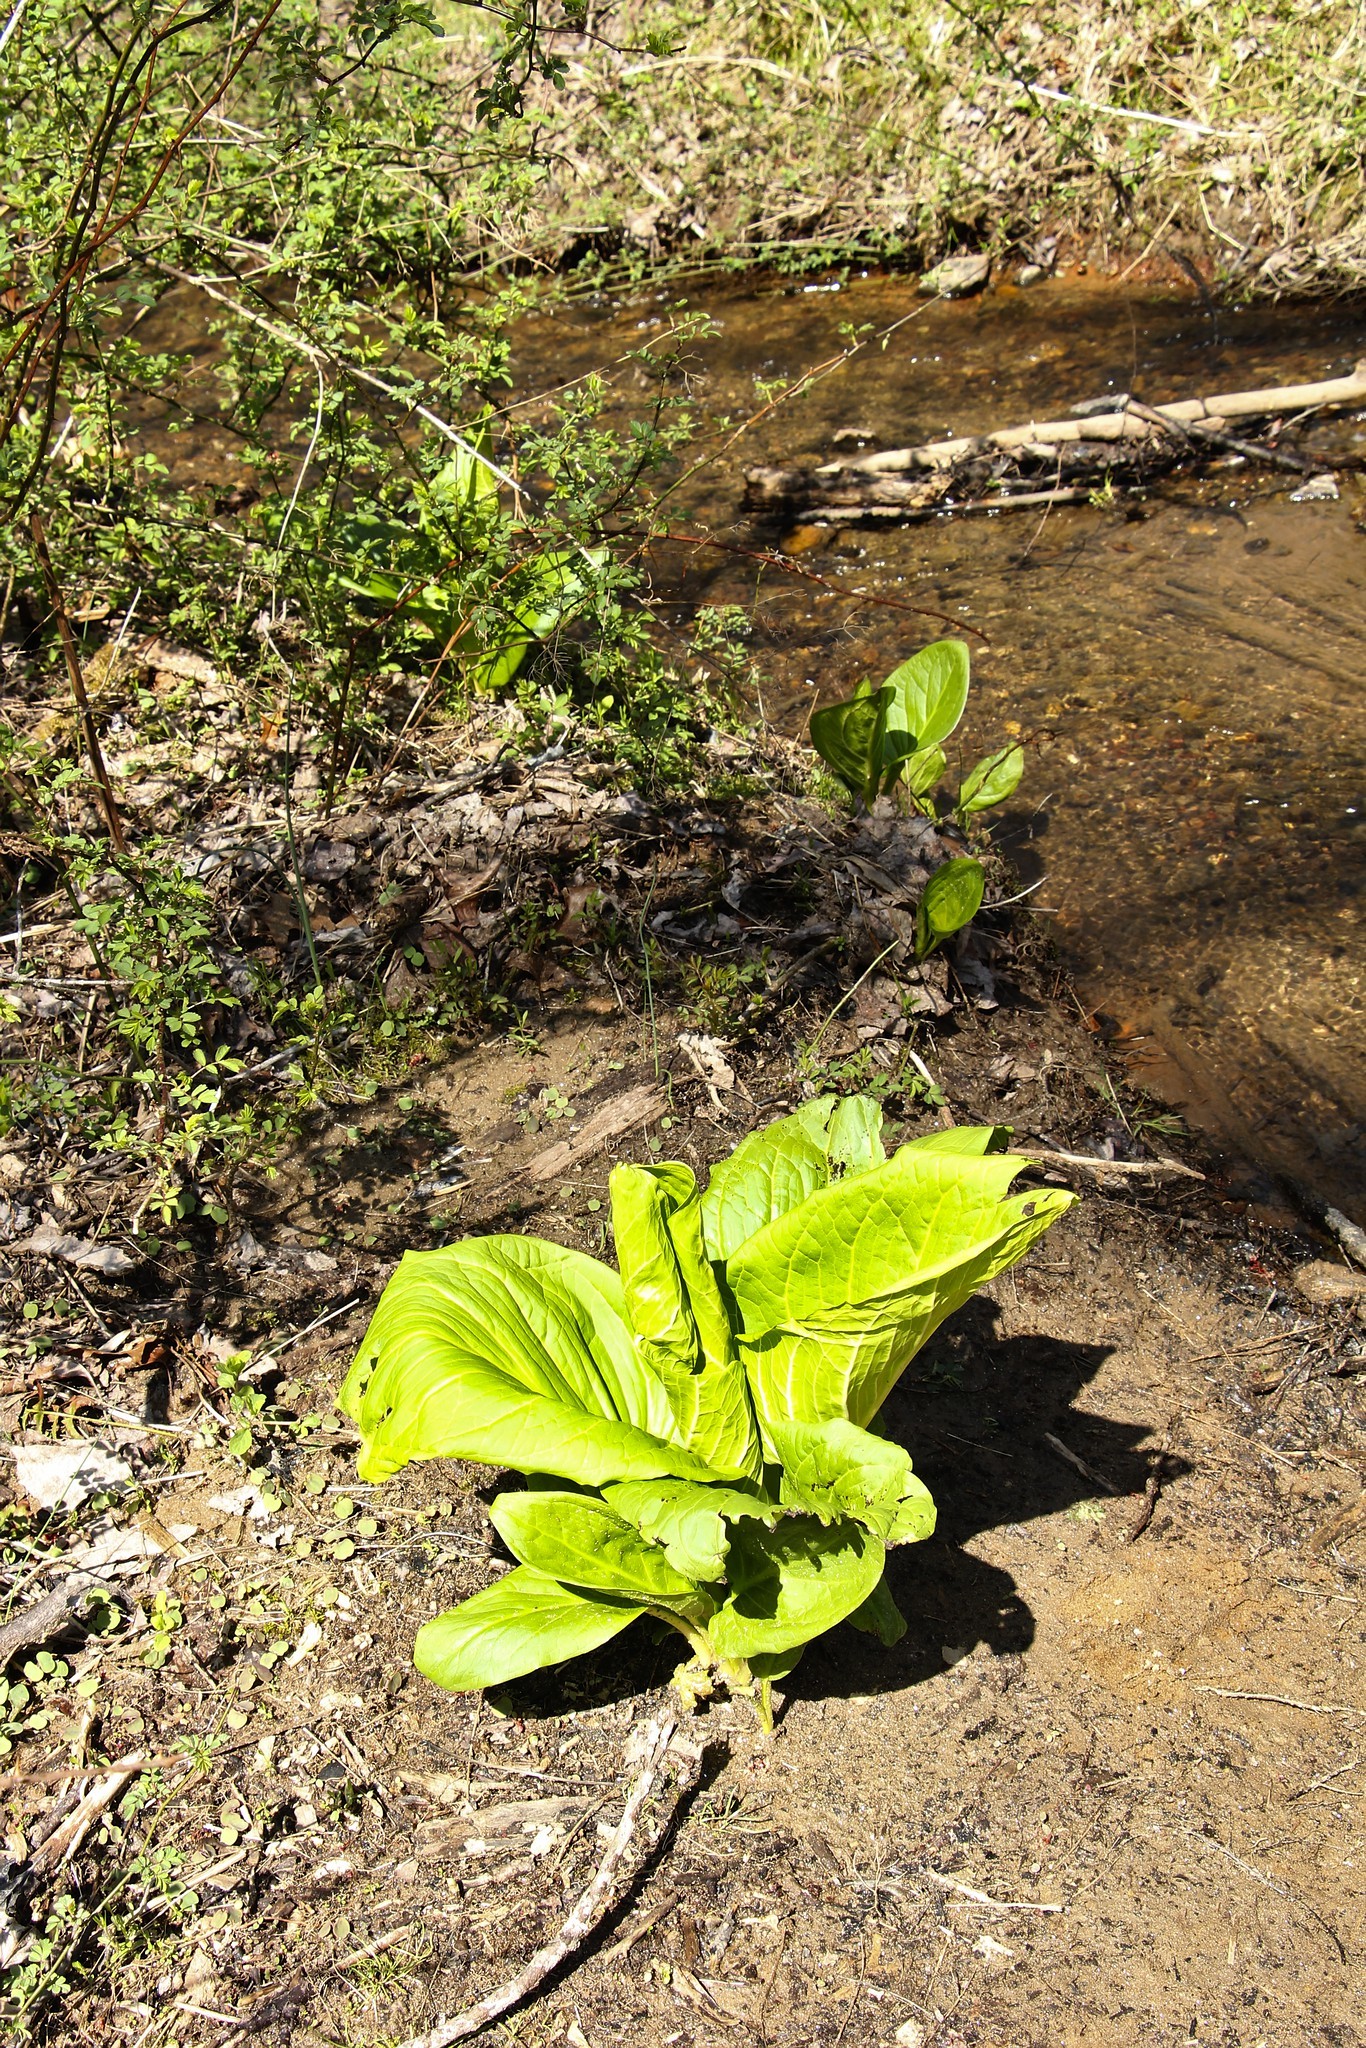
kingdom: Plantae
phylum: Tracheophyta
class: Liliopsida
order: Alismatales
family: Araceae
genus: Symplocarpus
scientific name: Symplocarpus foetidus
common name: Eastern skunk cabbage
